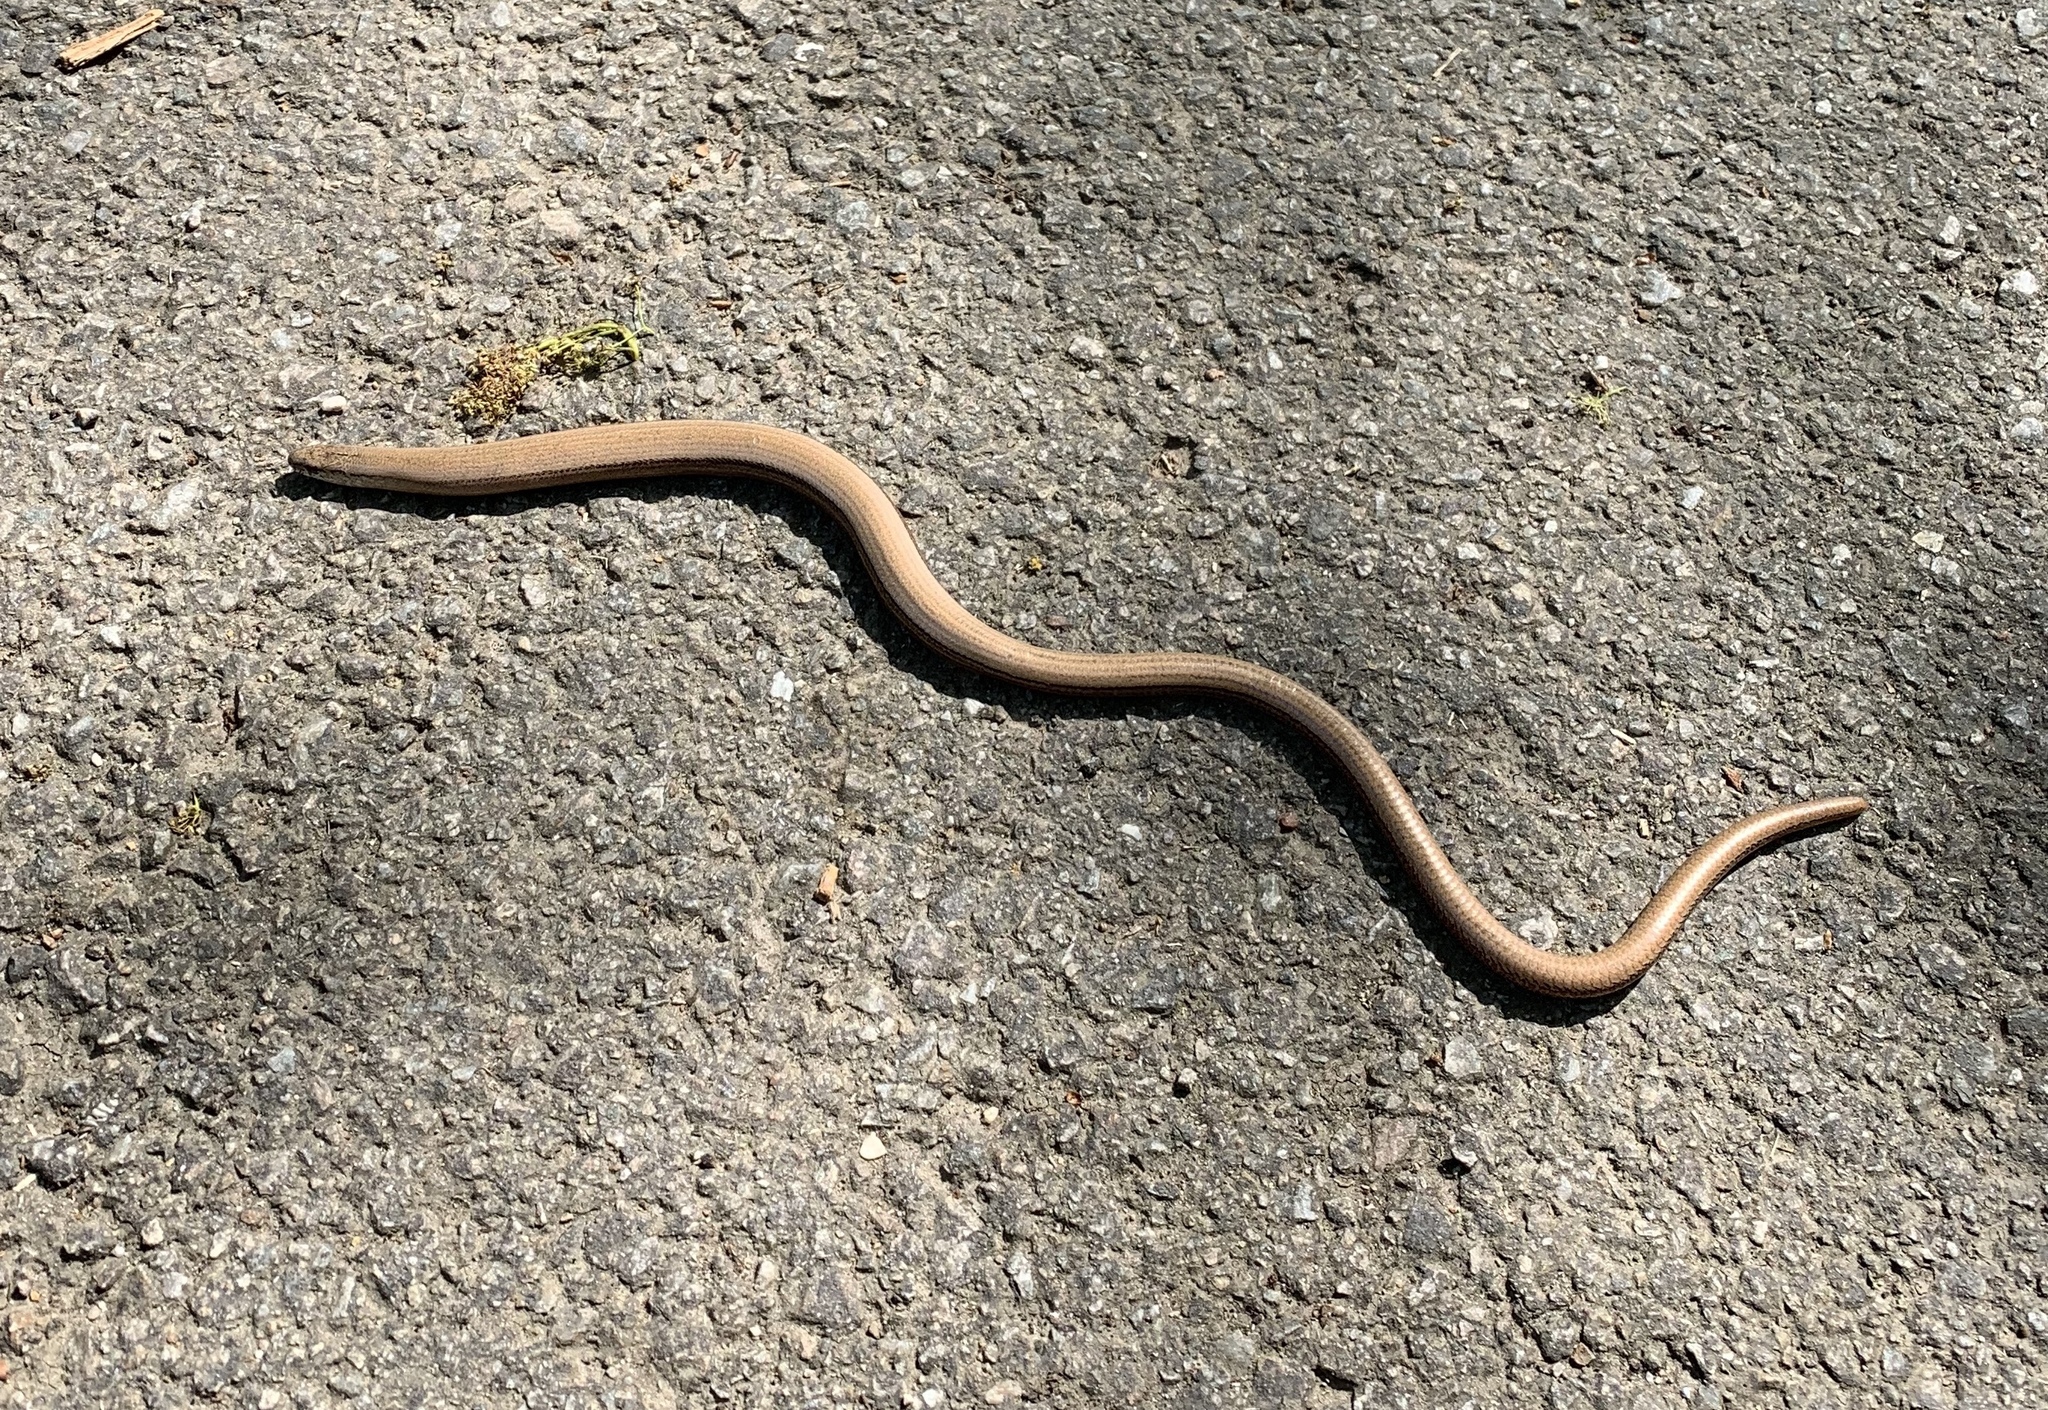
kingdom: Animalia
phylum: Chordata
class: Squamata
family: Anguidae
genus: Anguis
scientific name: Anguis fragilis
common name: Slow worm
